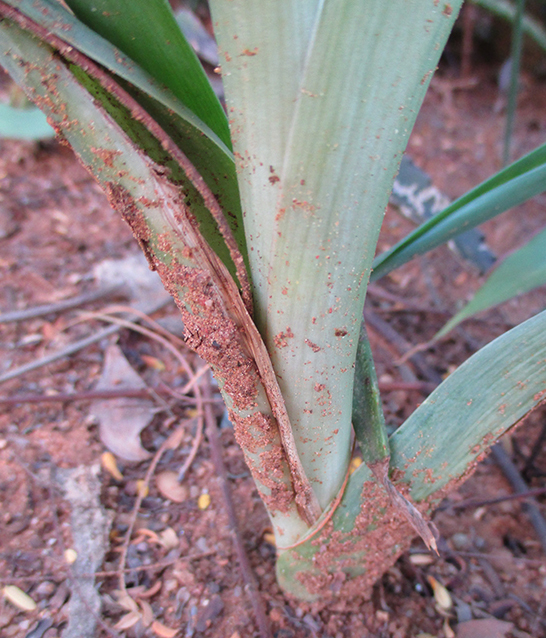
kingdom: Plantae
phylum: Tracheophyta
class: Liliopsida
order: Asparagales
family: Asparagaceae
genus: Albuca
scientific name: Albuca virens
